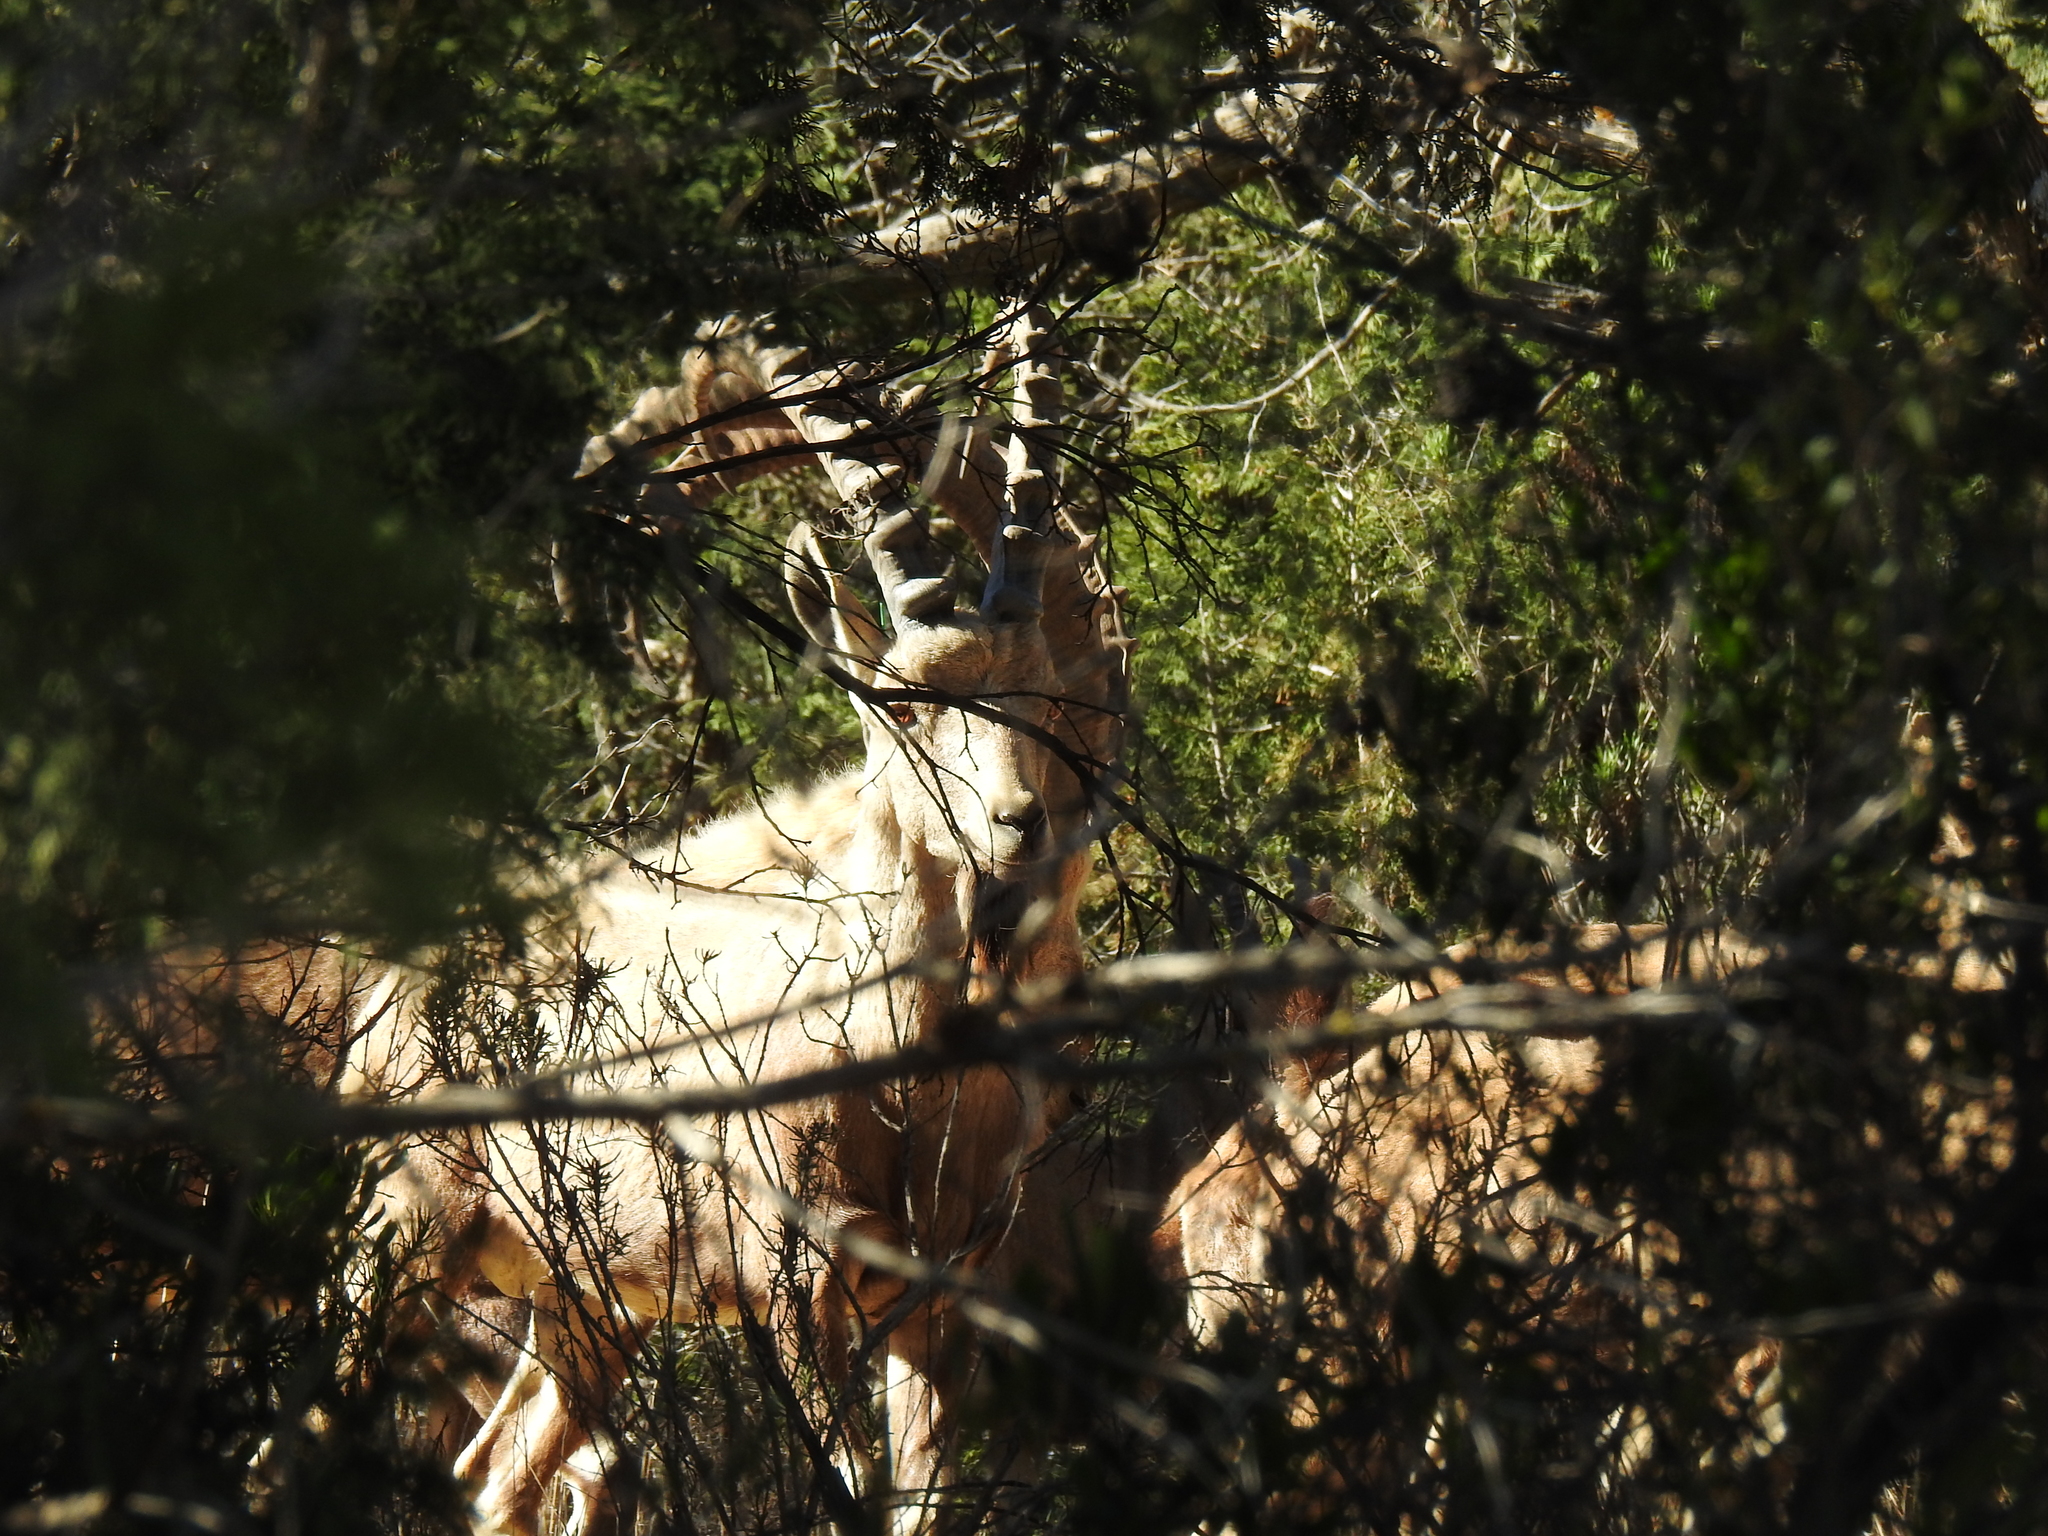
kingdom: Animalia
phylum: Chordata
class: Mammalia
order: Artiodactyla
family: Bovidae
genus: Capra
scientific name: Capra nubiana
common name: Nubian ibex
